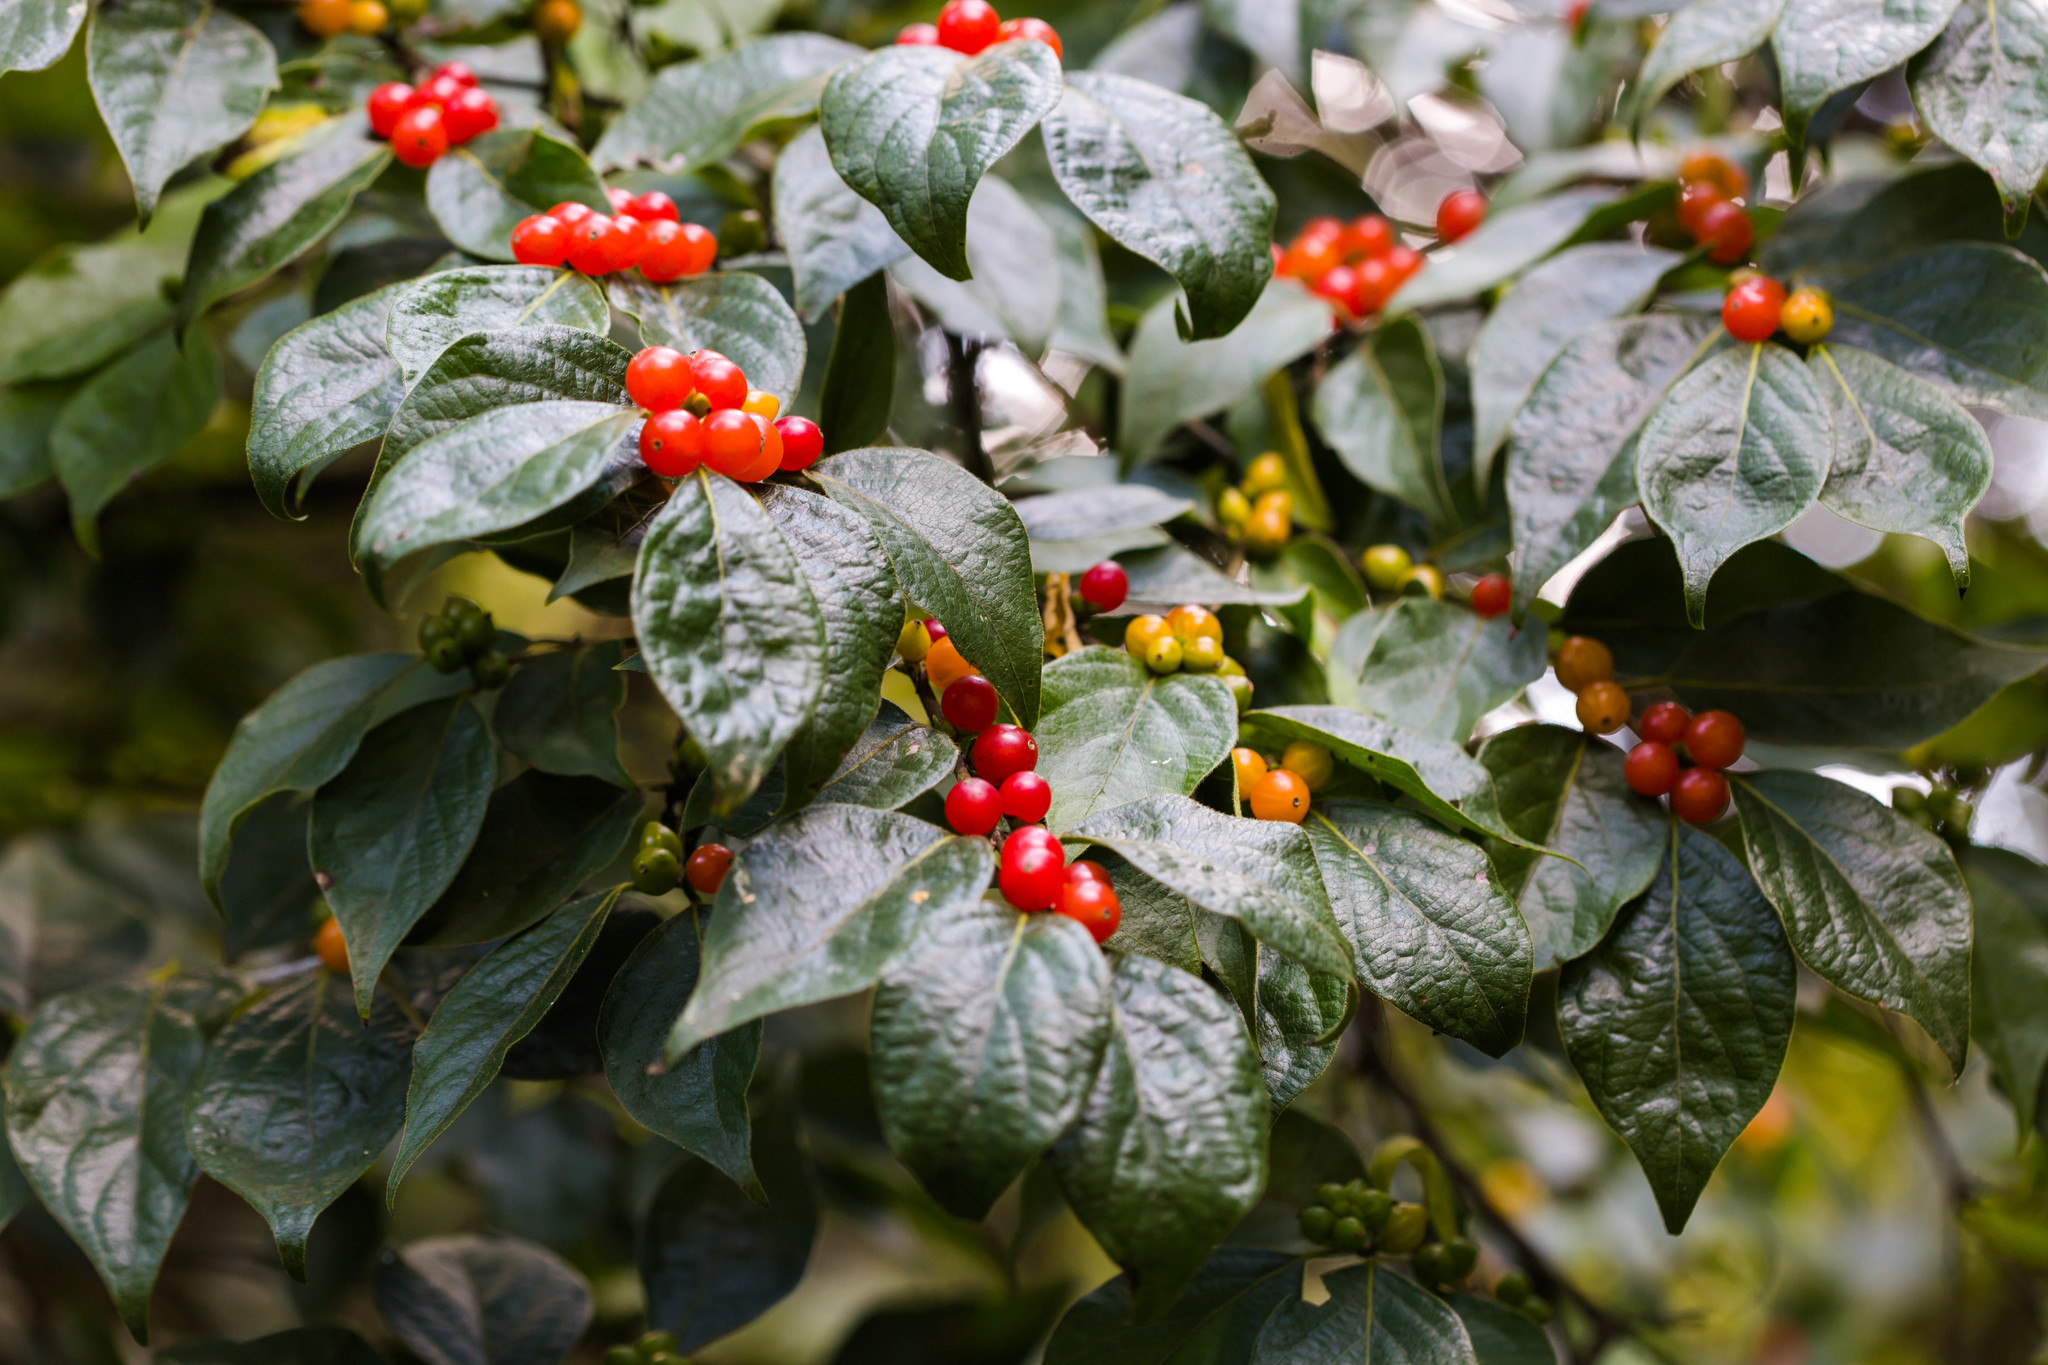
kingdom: Plantae
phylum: Tracheophyta
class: Magnoliopsida
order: Dipsacales
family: Caprifoliaceae
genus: Lonicera
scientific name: Lonicera maackii
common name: Amur honeysuckle
